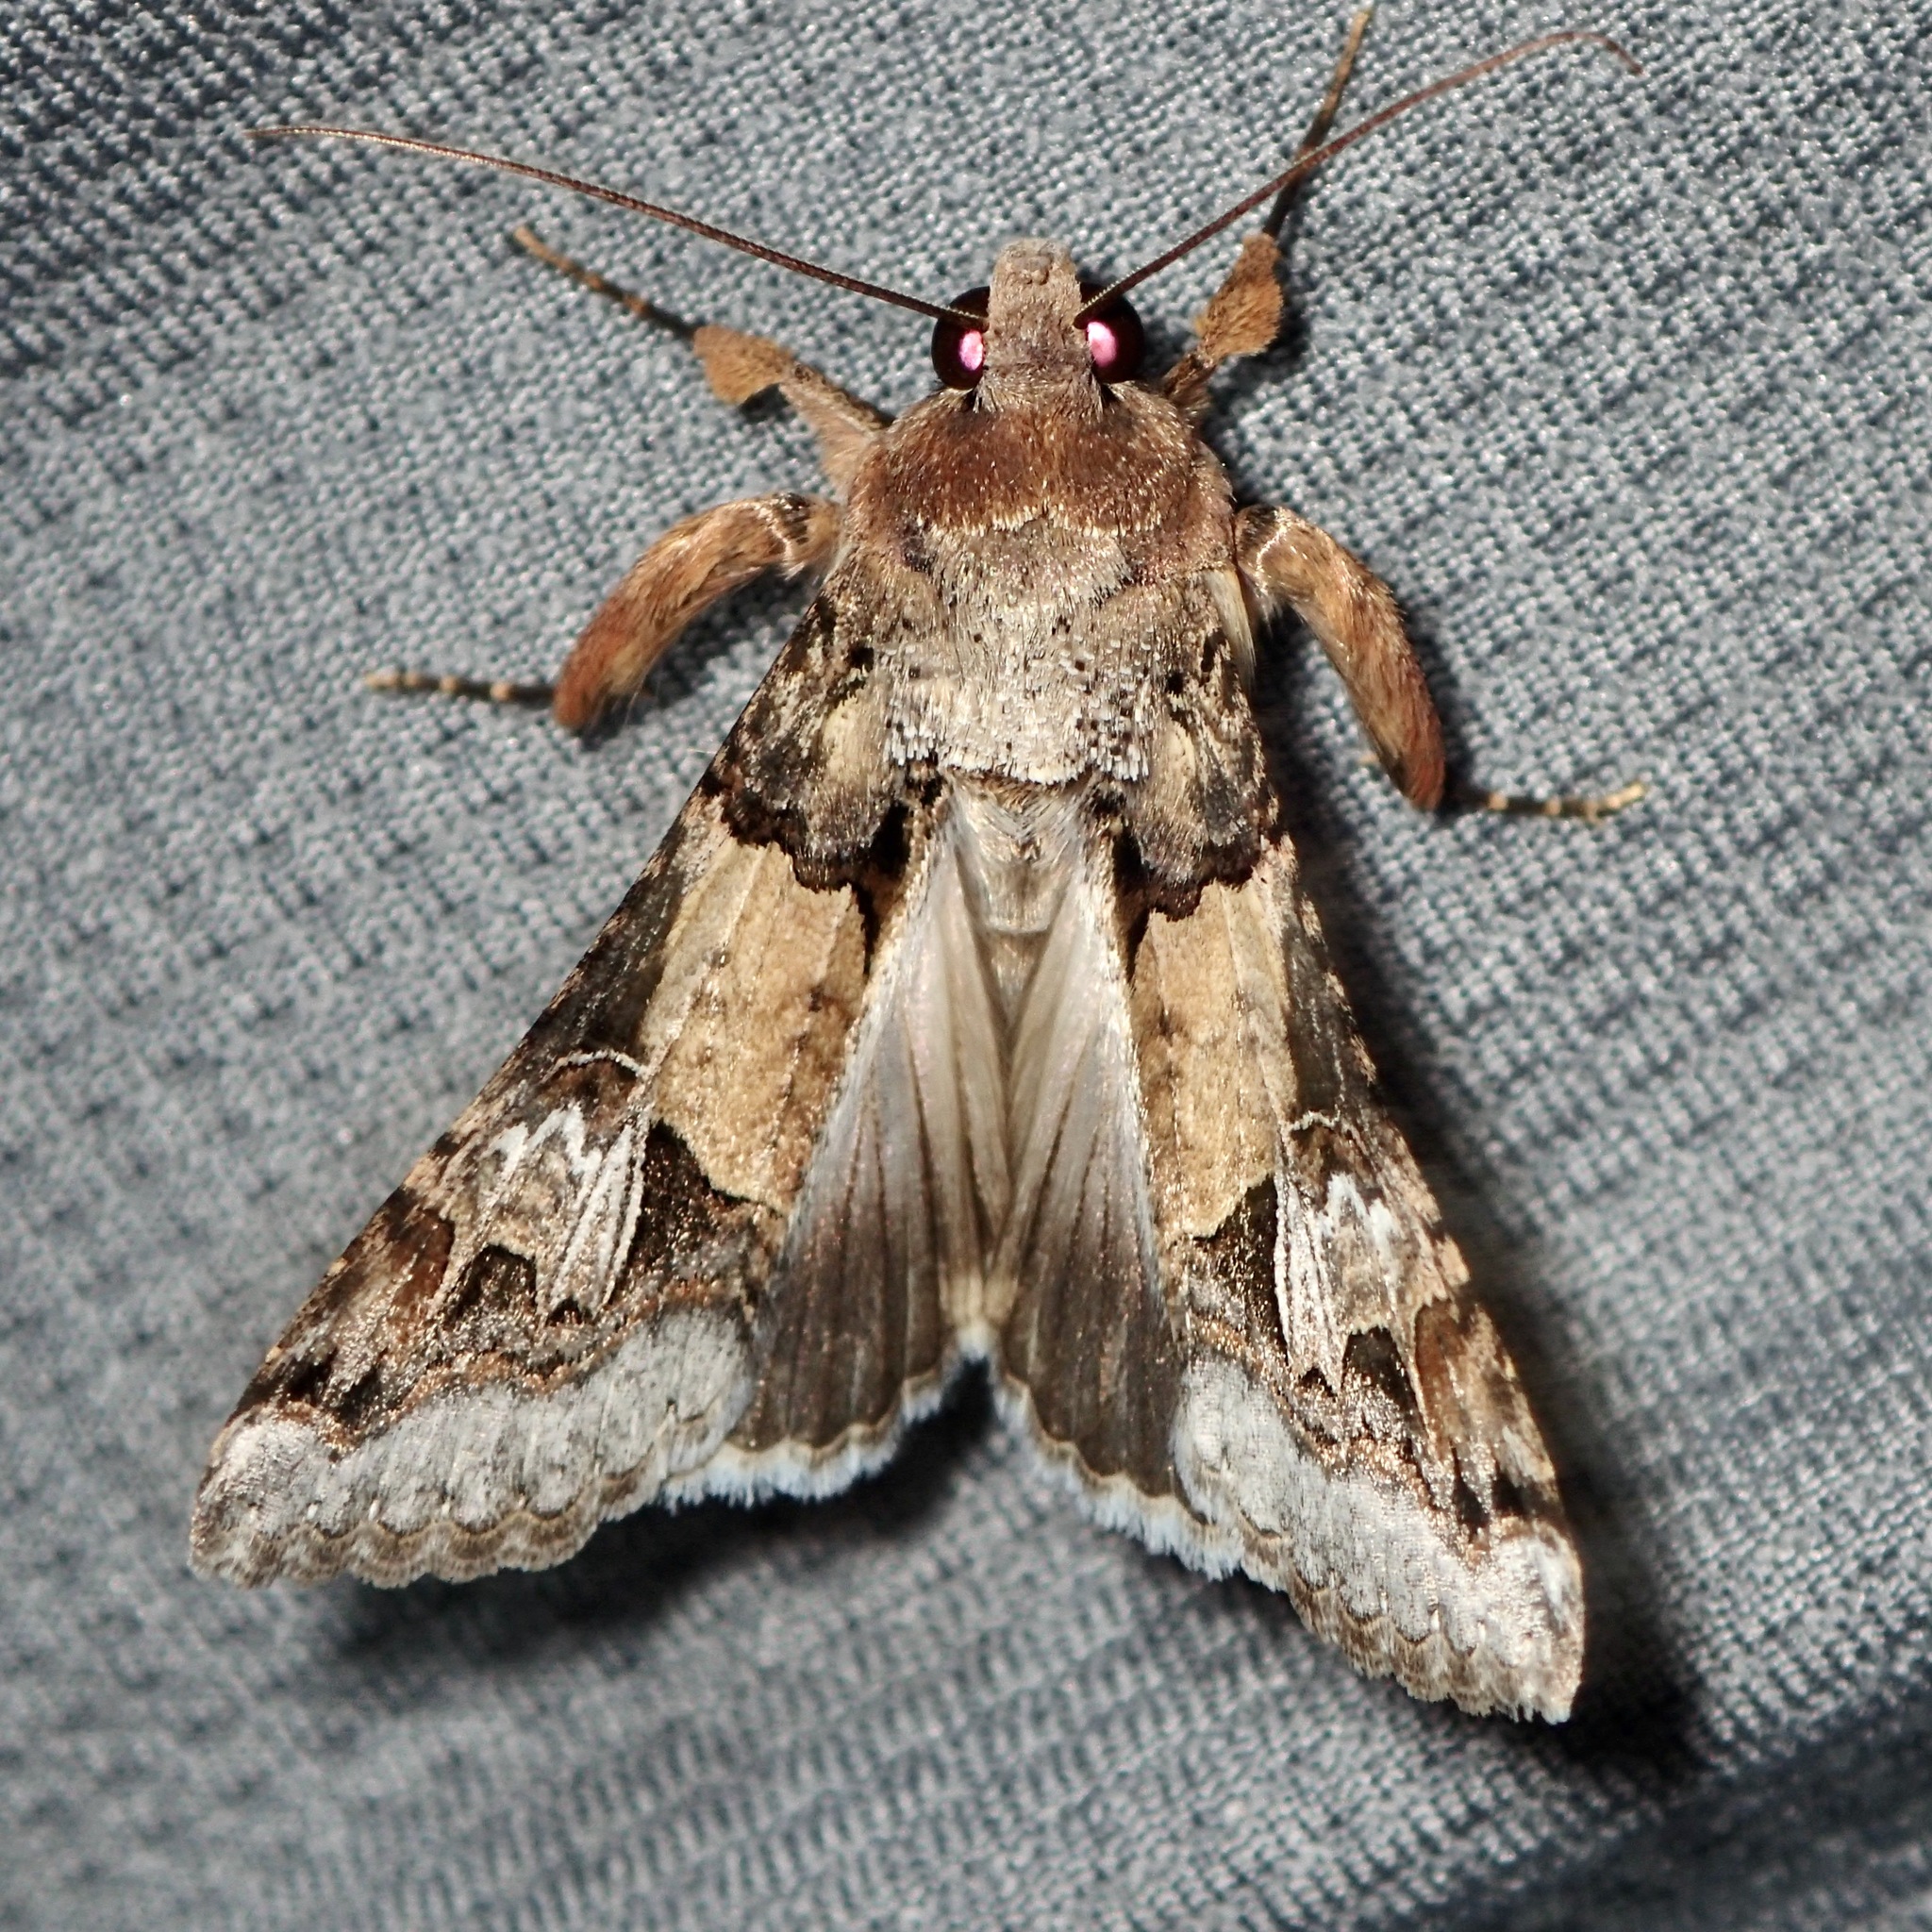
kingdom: Animalia
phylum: Arthropoda
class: Insecta
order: Lepidoptera
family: Erebidae
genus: Melipotis
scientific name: Melipotis novanda
